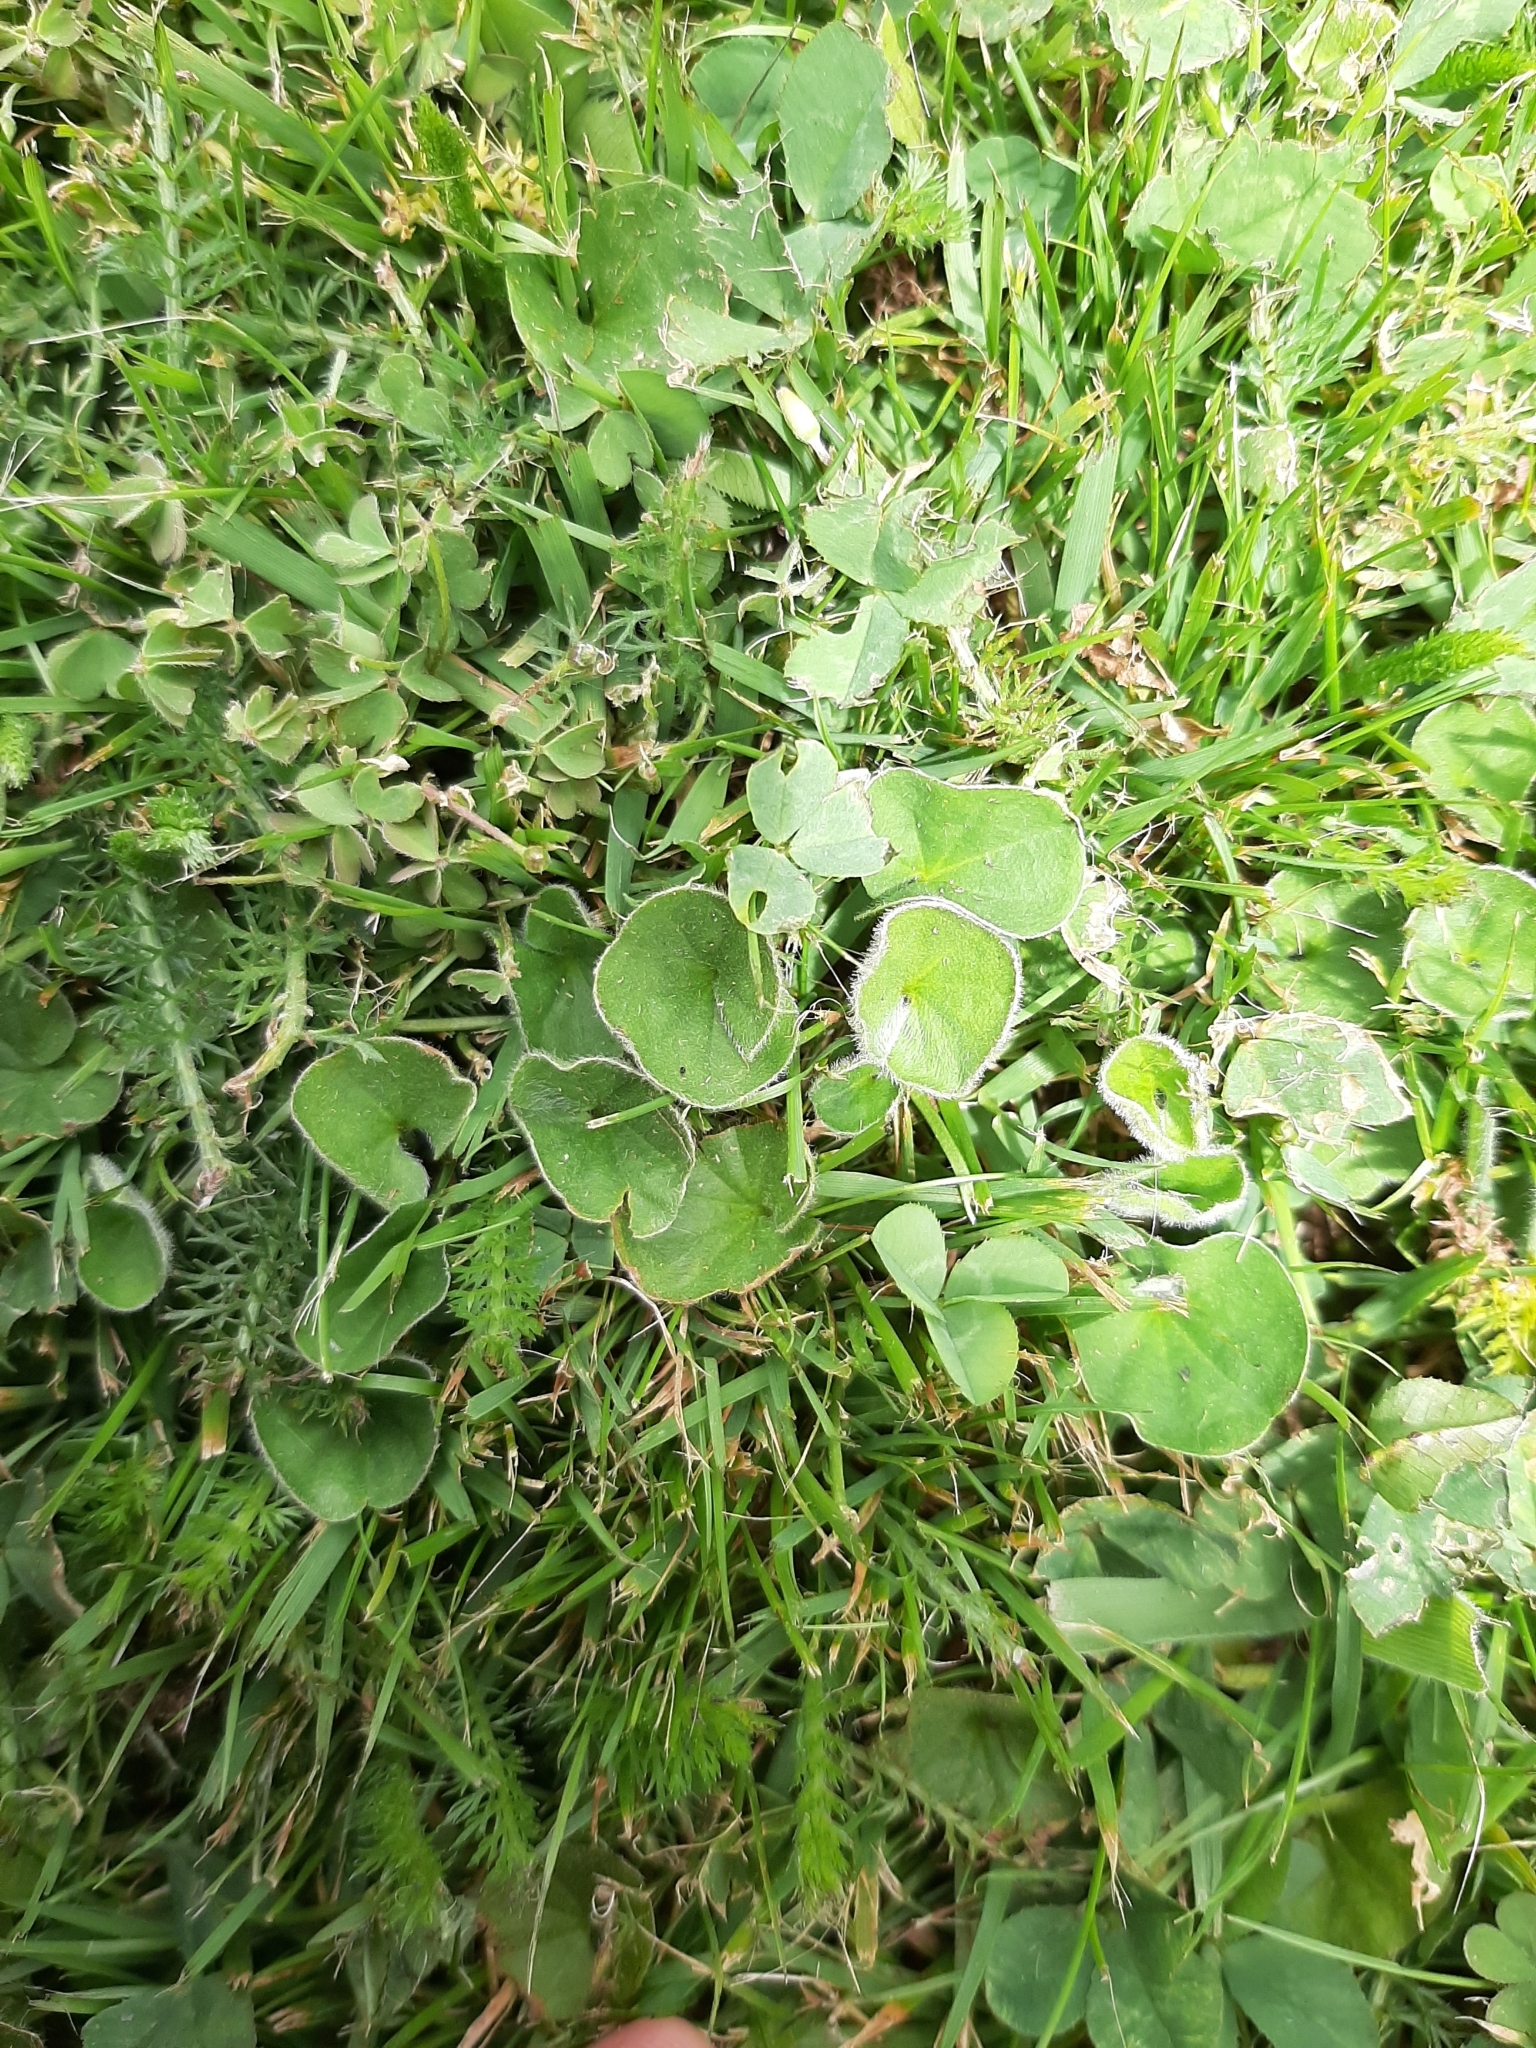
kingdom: Plantae
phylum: Tracheophyta
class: Magnoliopsida
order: Solanales
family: Convolvulaceae
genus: Dichondra
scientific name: Dichondra repens
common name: Kidneyweed
